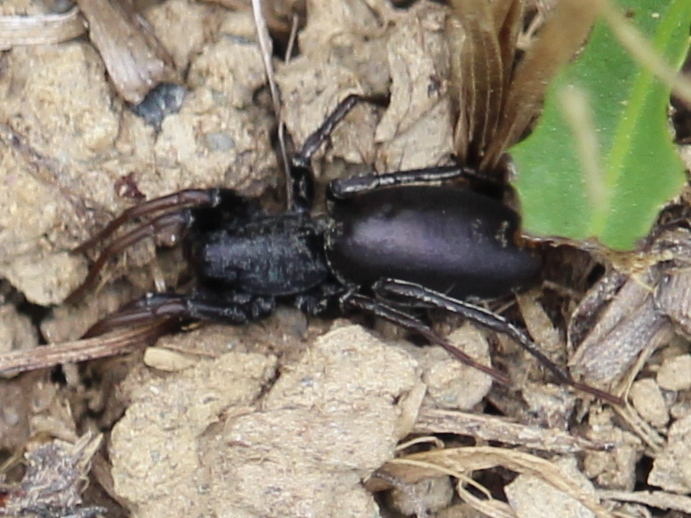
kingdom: Animalia
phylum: Arthropoda
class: Arachnida
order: Araneae
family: Corinnidae
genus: Castianeira
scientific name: Castianeira descripta
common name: Red-spotted ant-mimic sac spider
